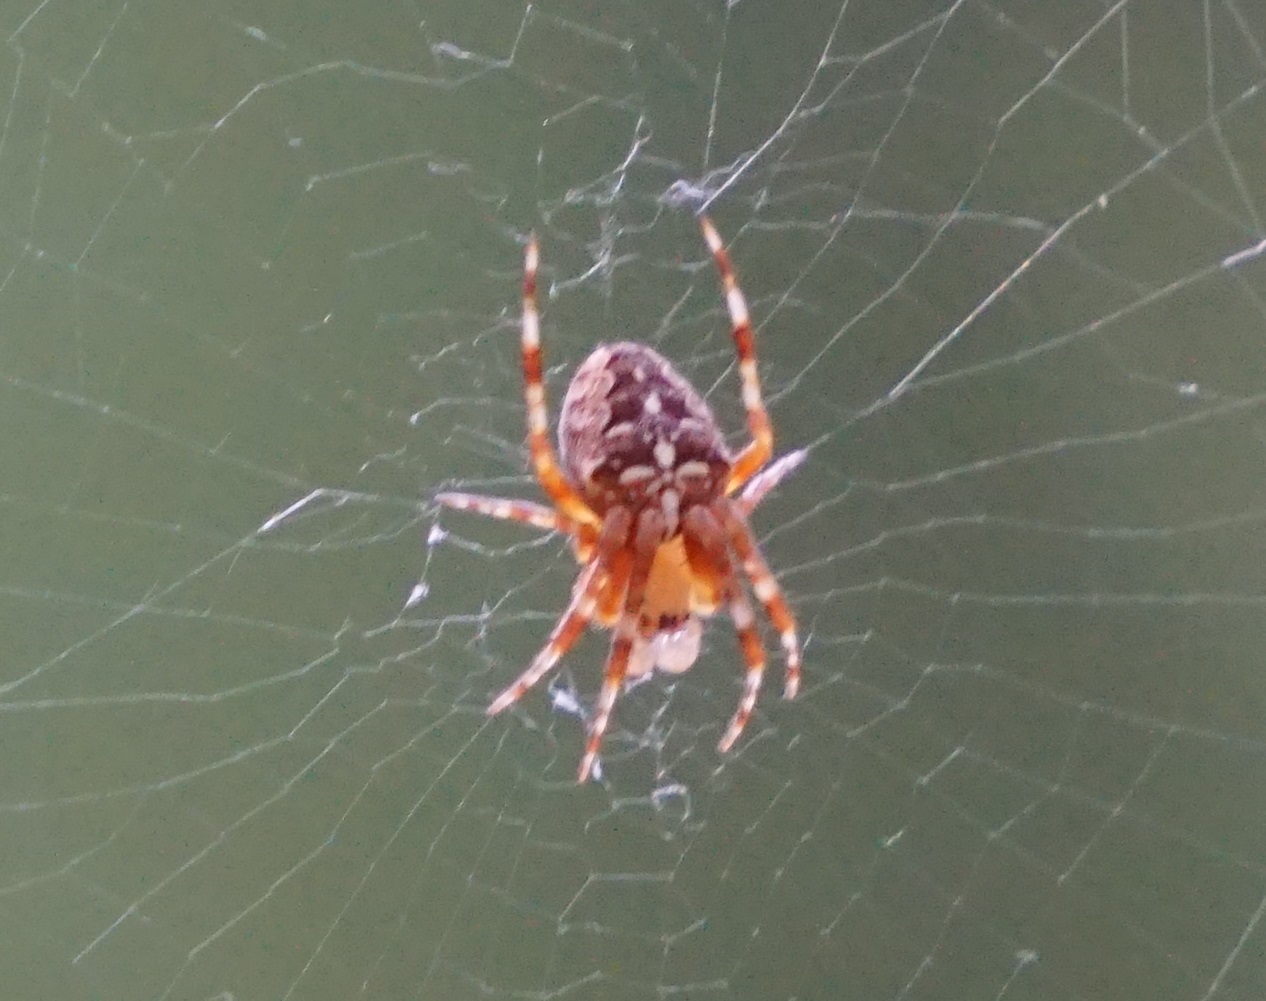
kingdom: Animalia
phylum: Arthropoda
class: Arachnida
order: Araneae
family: Araneidae
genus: Araneus
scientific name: Araneus diadematus
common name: Cross orbweaver
